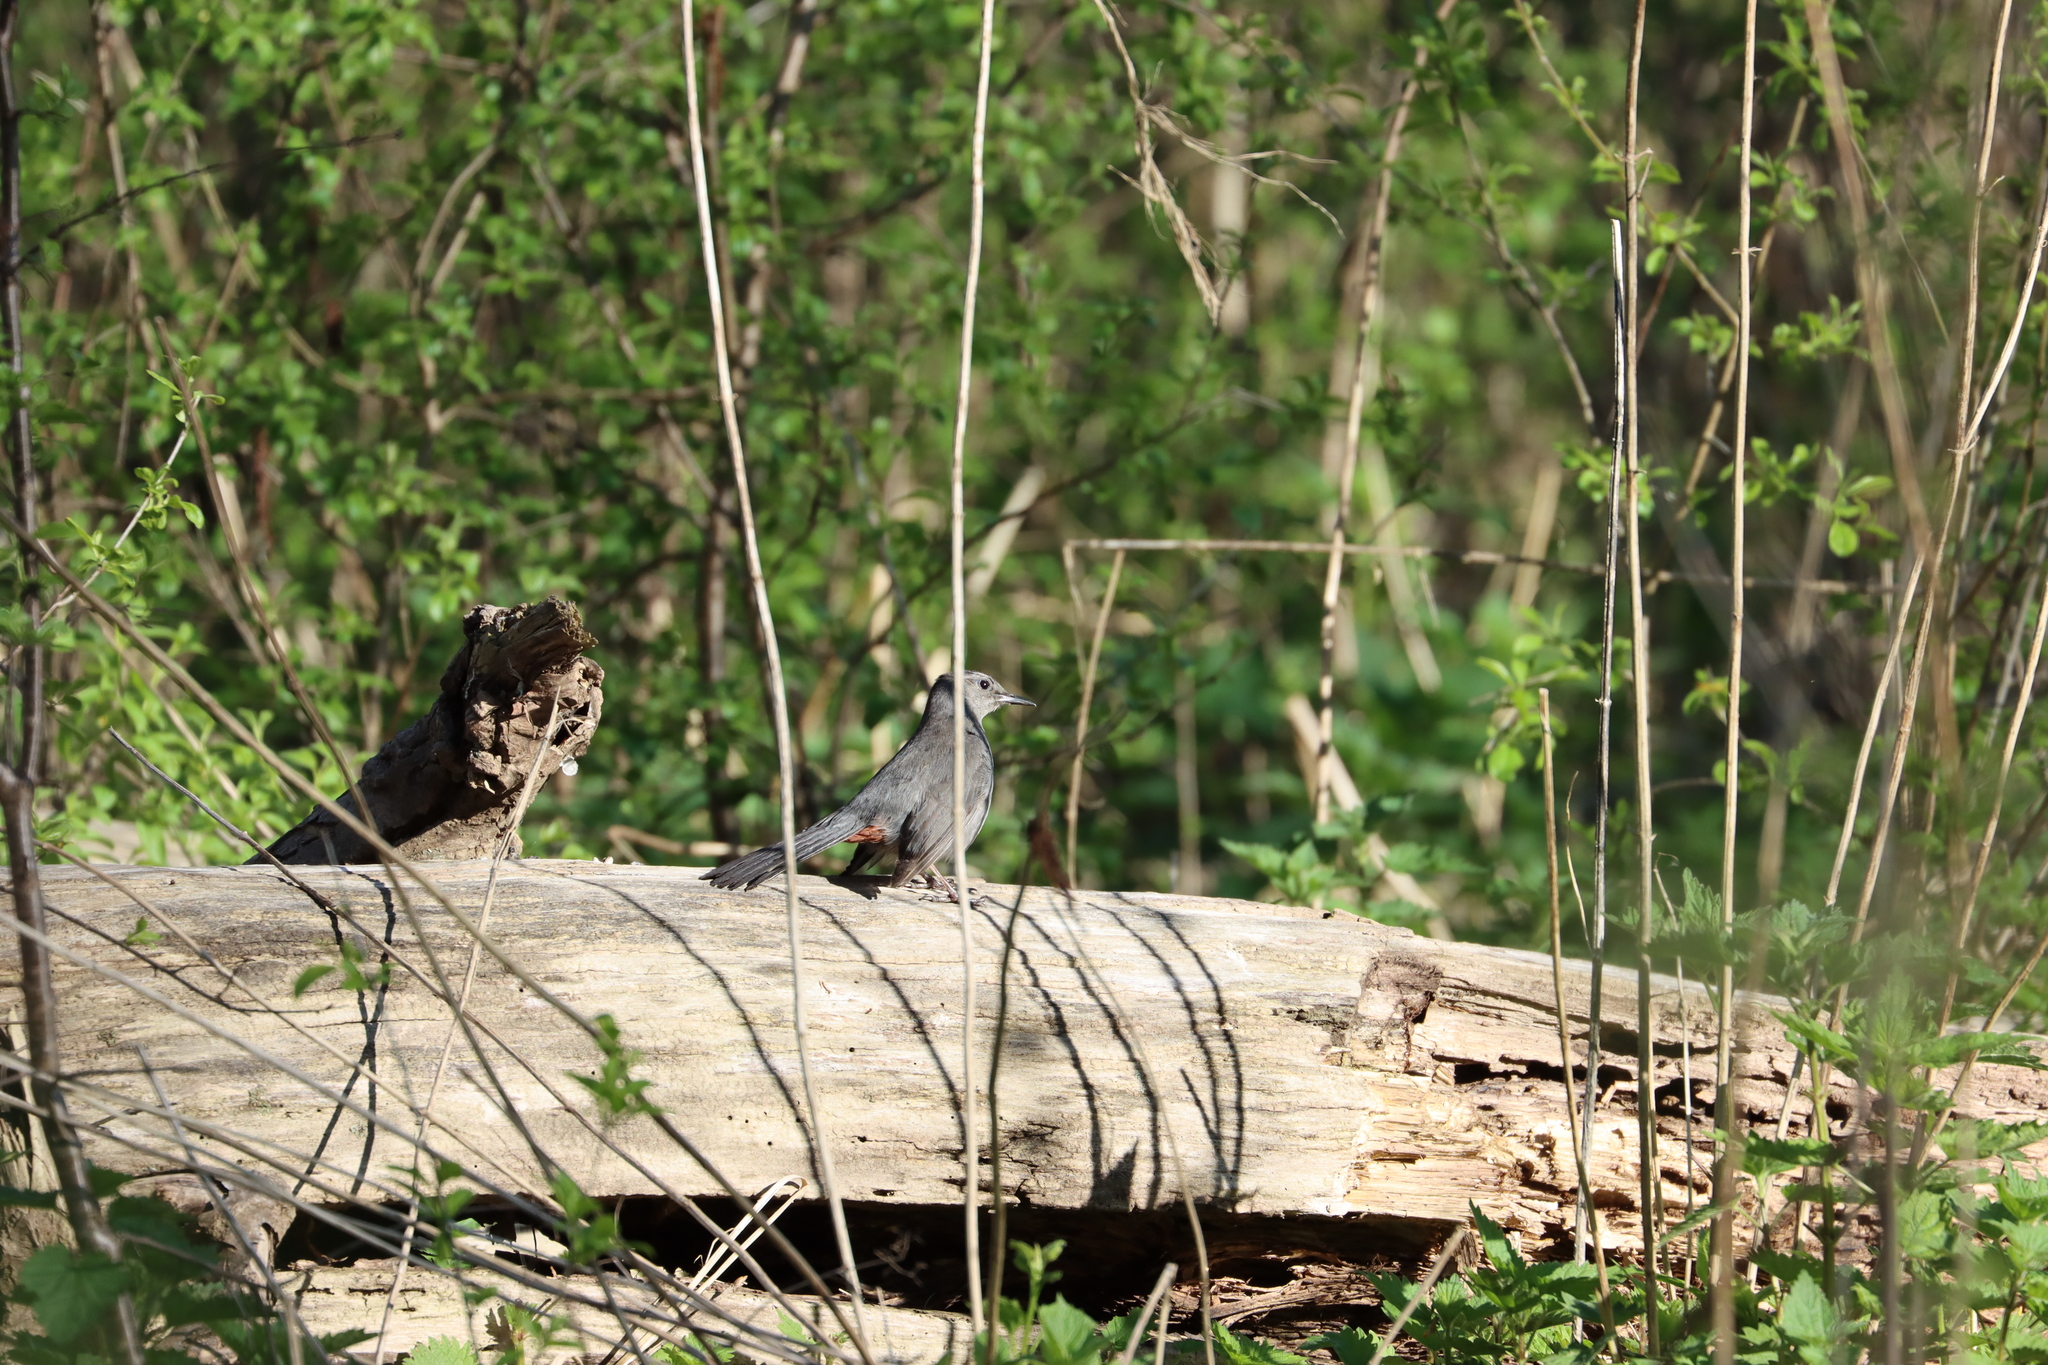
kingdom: Animalia
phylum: Chordata
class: Aves
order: Passeriformes
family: Mimidae
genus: Dumetella
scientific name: Dumetella carolinensis
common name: Gray catbird
